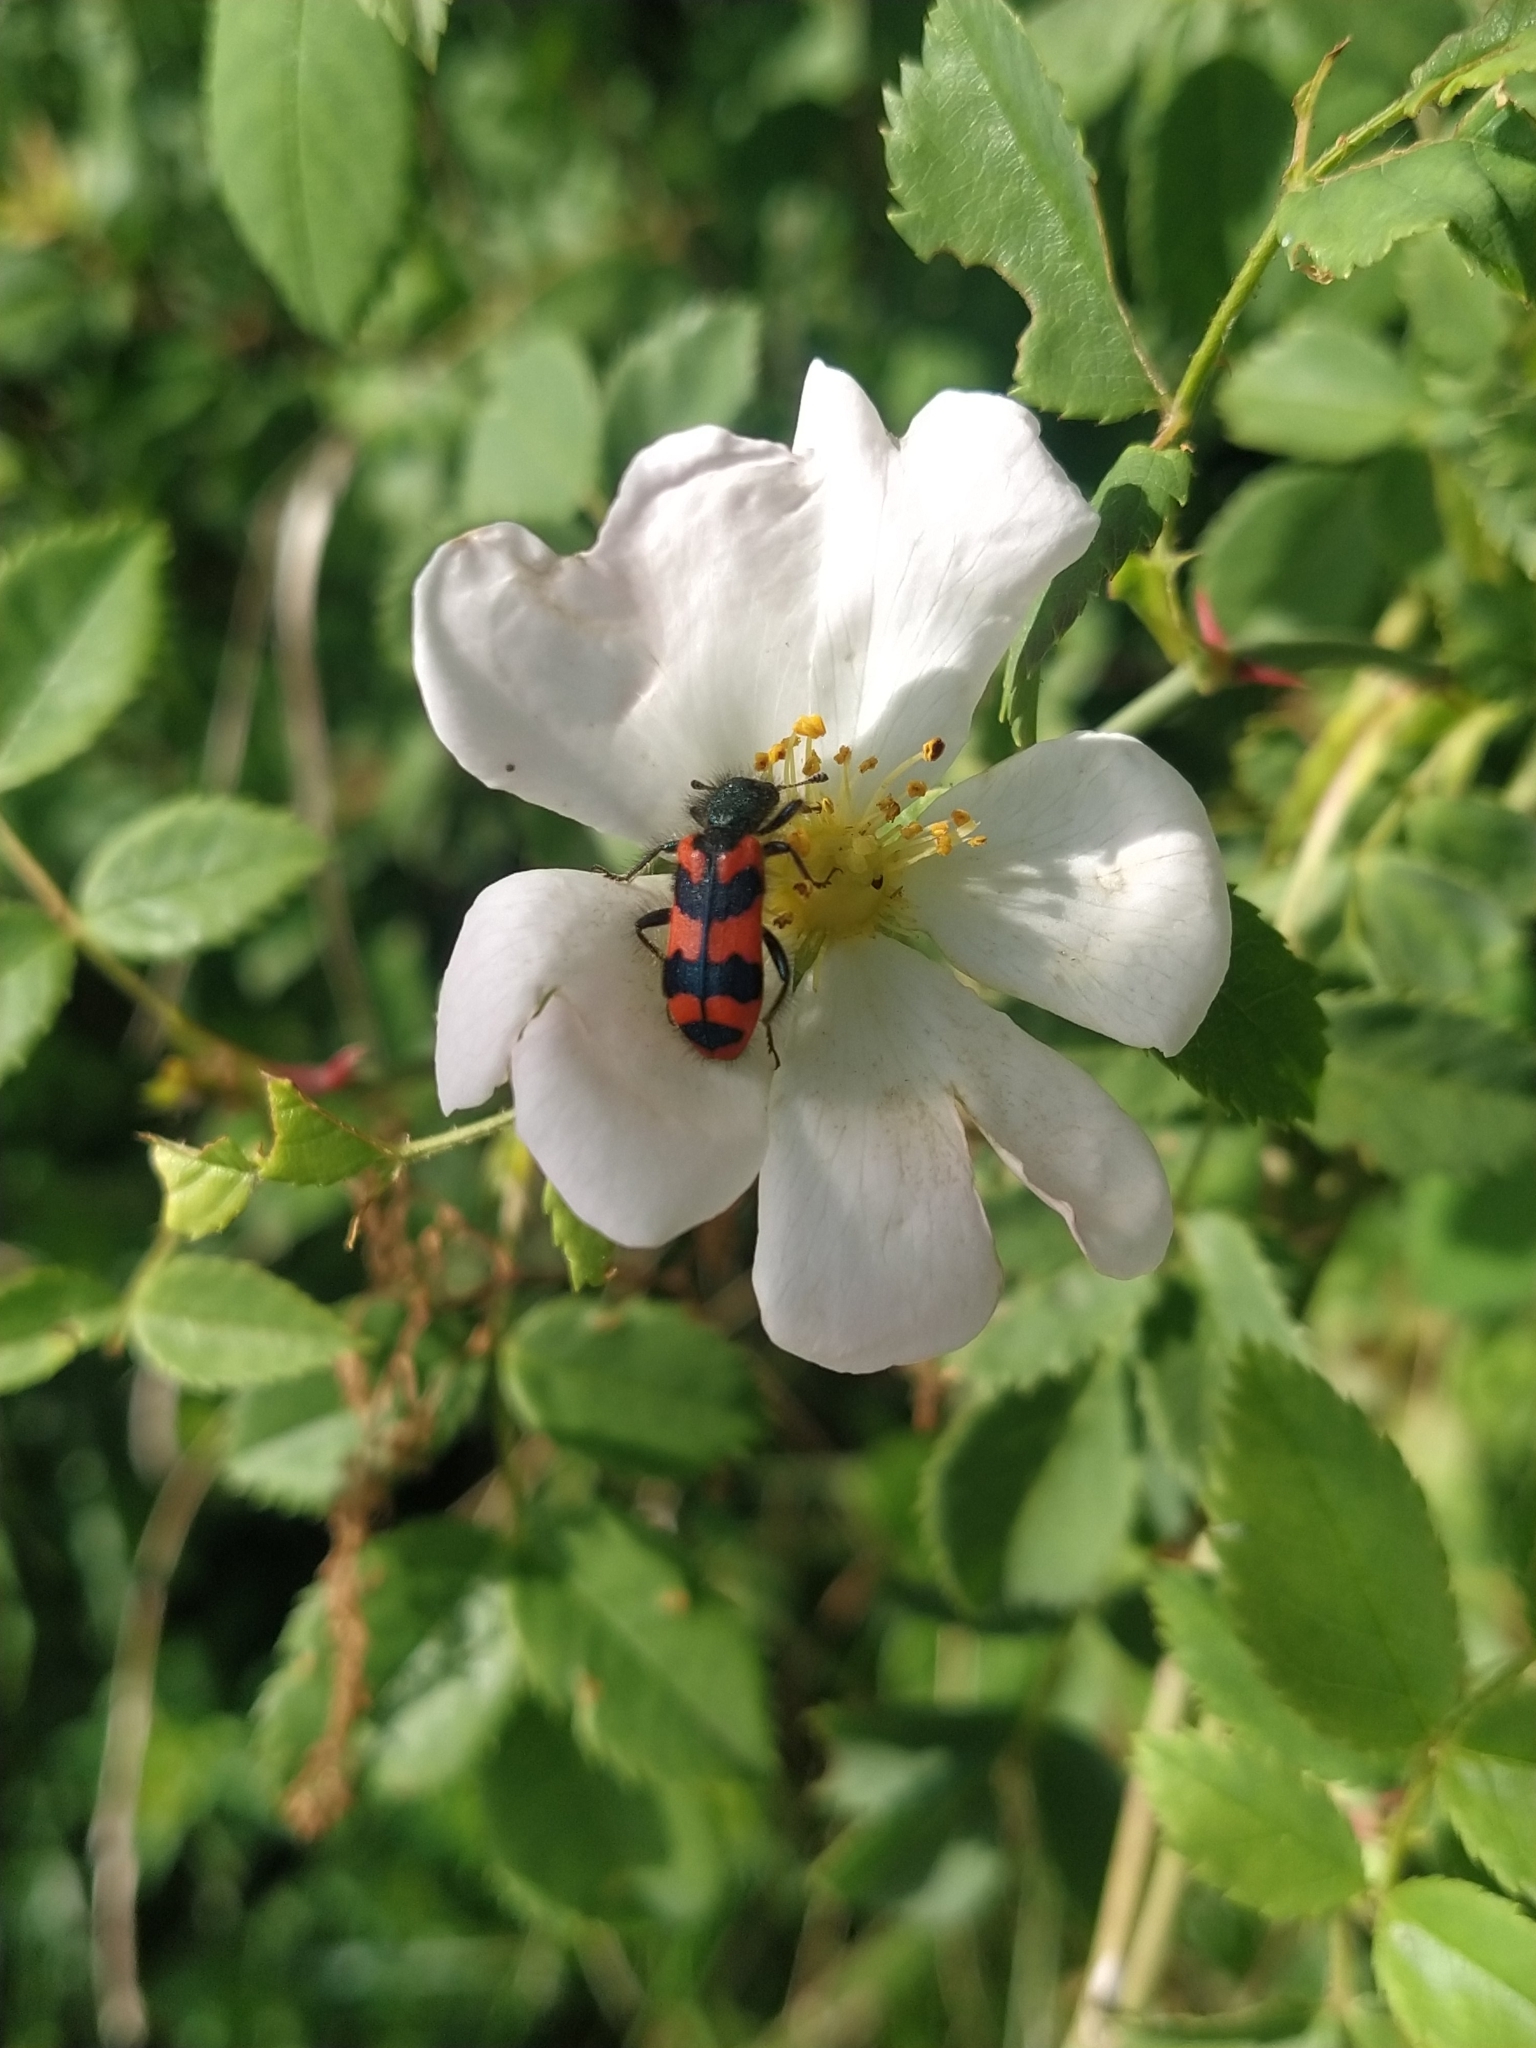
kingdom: Animalia
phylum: Arthropoda
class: Insecta
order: Coleoptera
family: Cleridae
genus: Trichodes
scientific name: Trichodes alvearius
